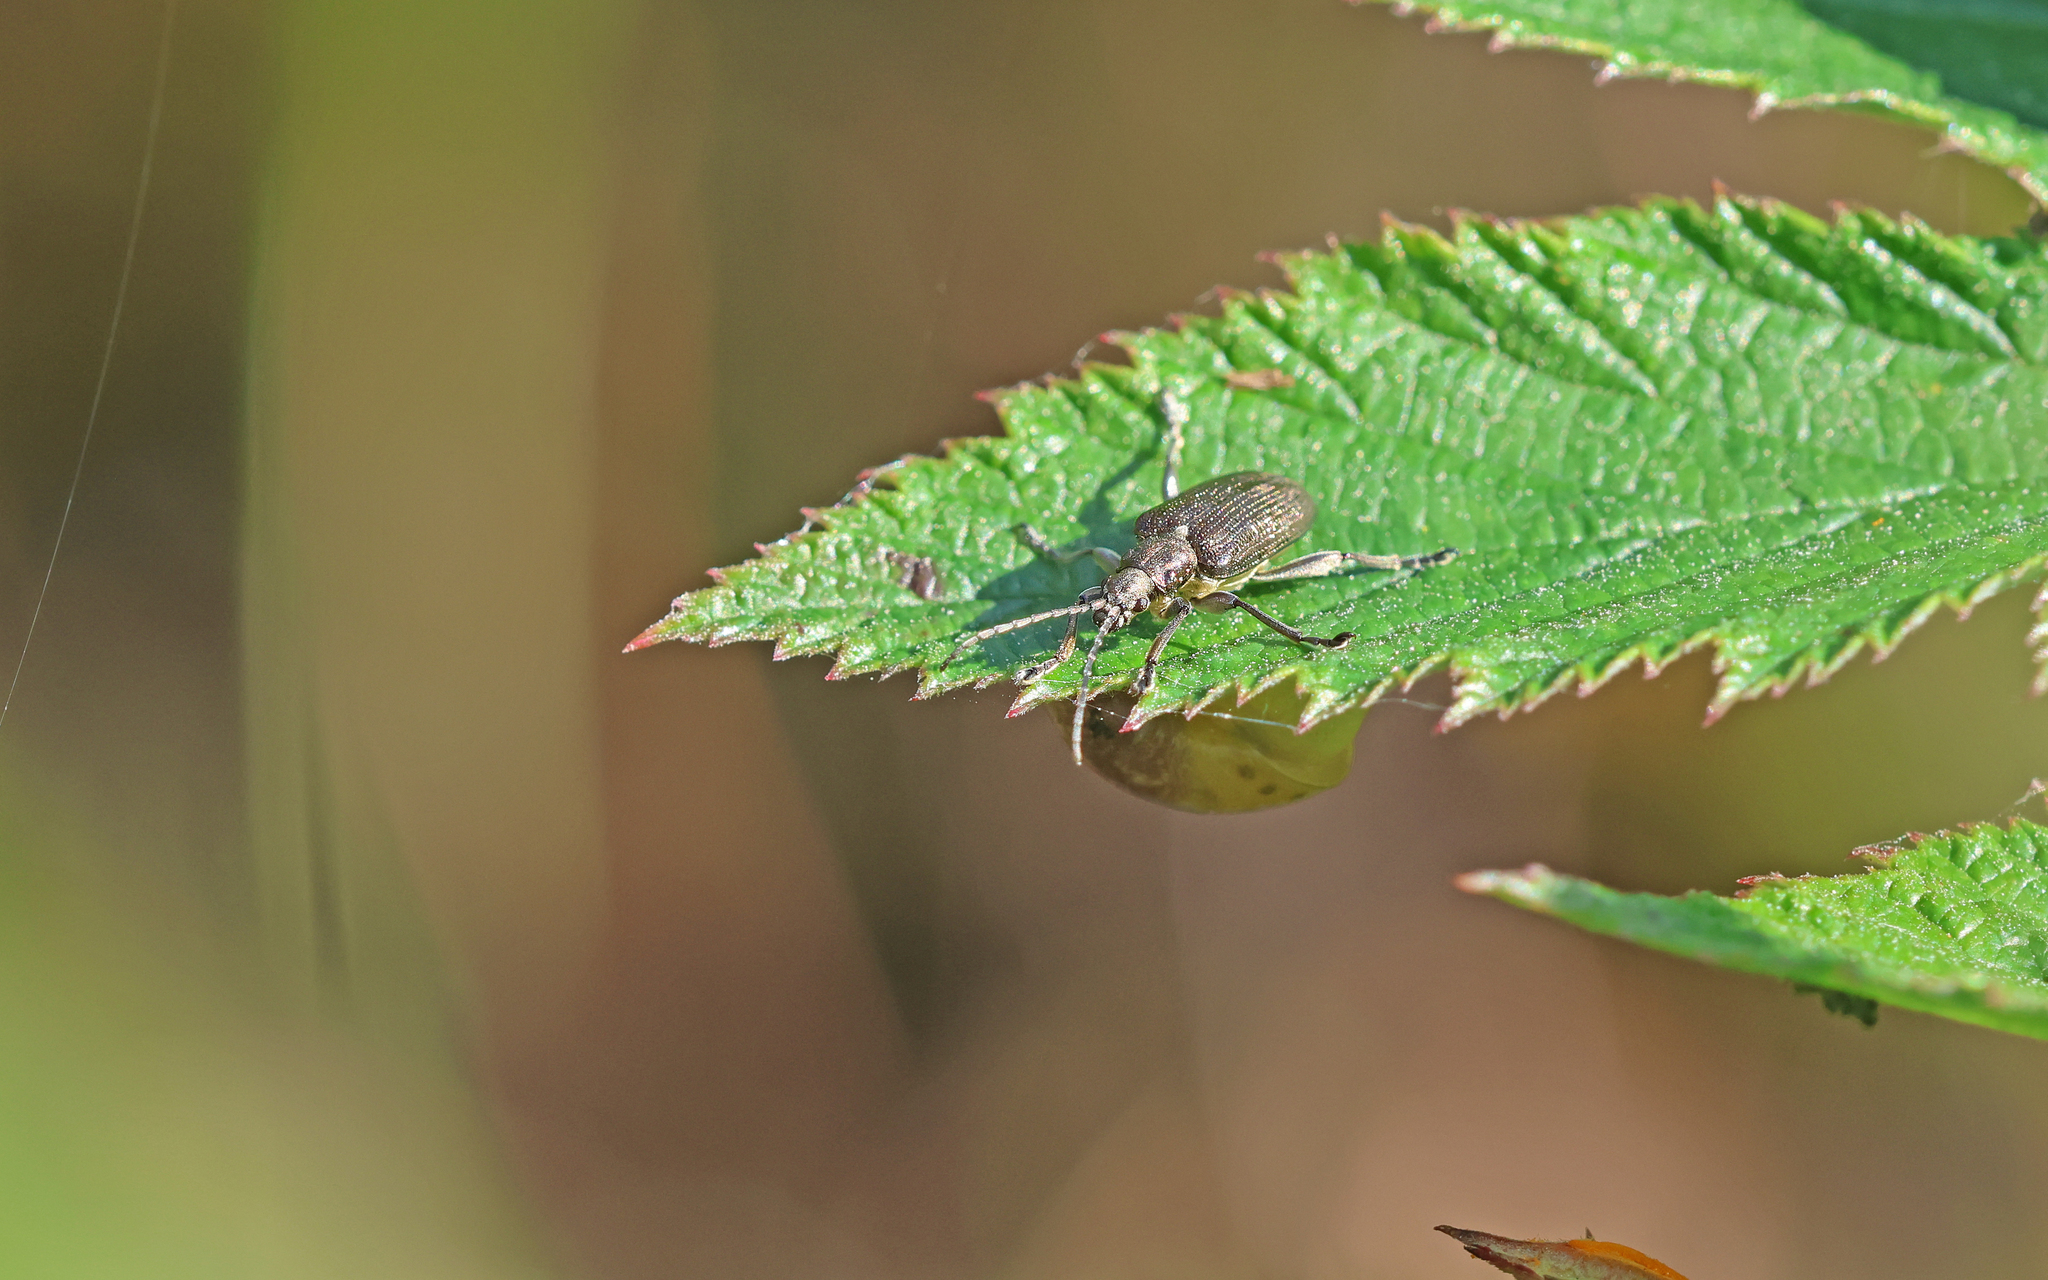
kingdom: Animalia
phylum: Arthropoda
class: Insecta
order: Coleoptera
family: Chrysomelidae
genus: Plateumaris
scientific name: Plateumaris sericea
